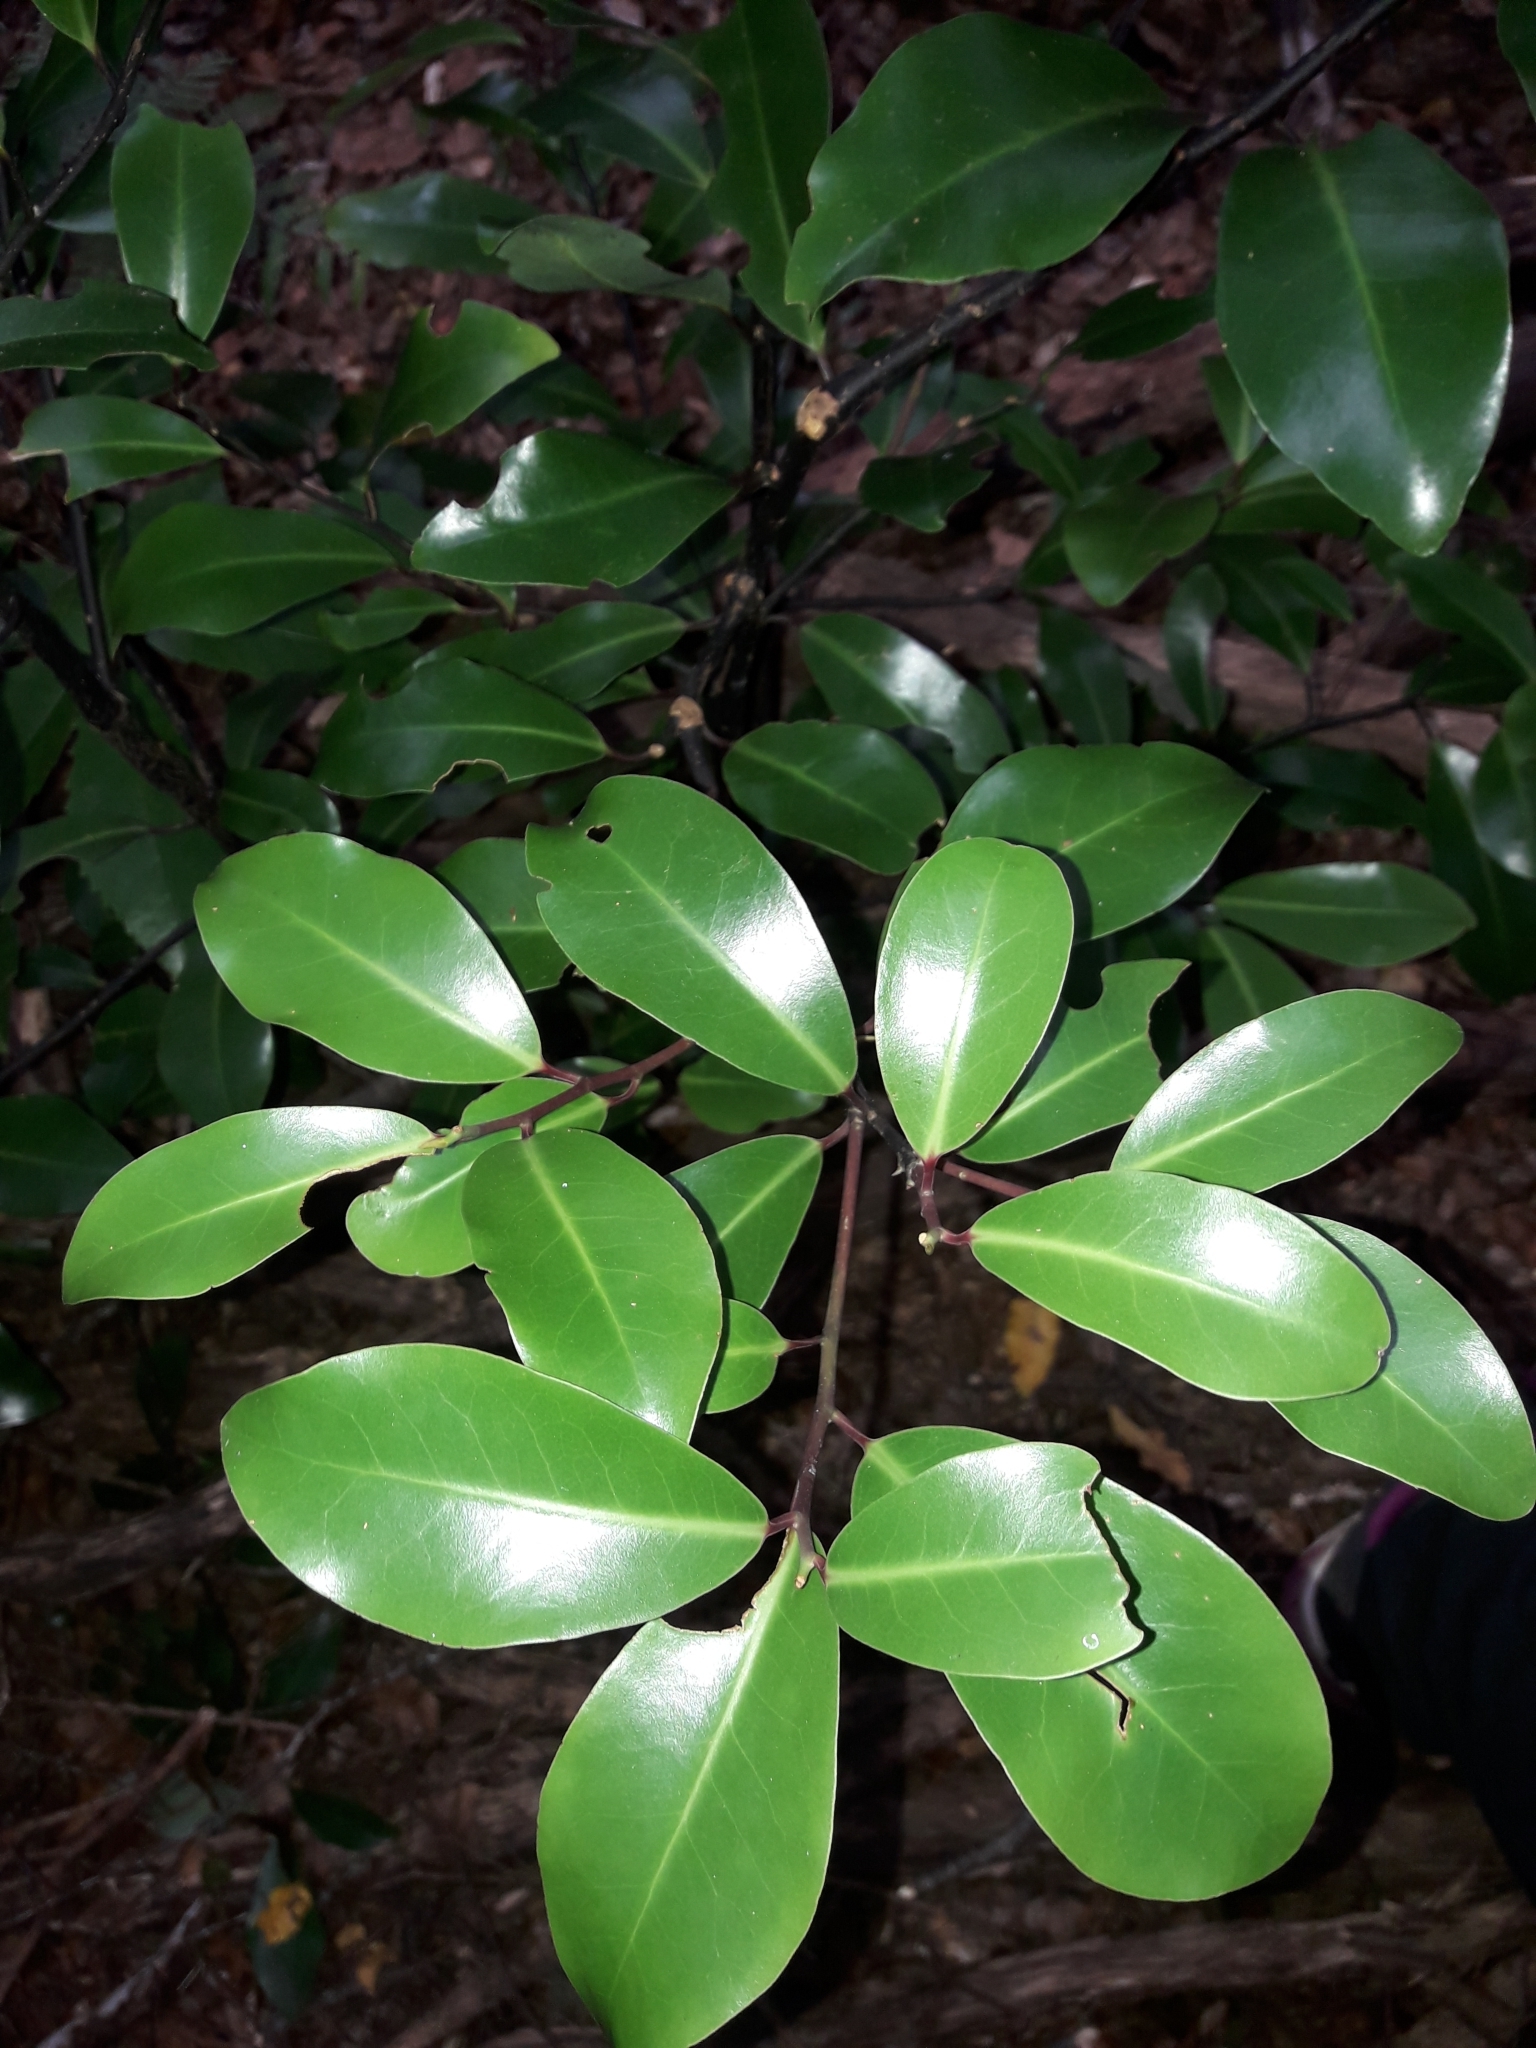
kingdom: Plantae
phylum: Tracheophyta
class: Magnoliopsida
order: Canellales
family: Winteraceae
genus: Pseudowintera
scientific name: Pseudowintera axillaris
